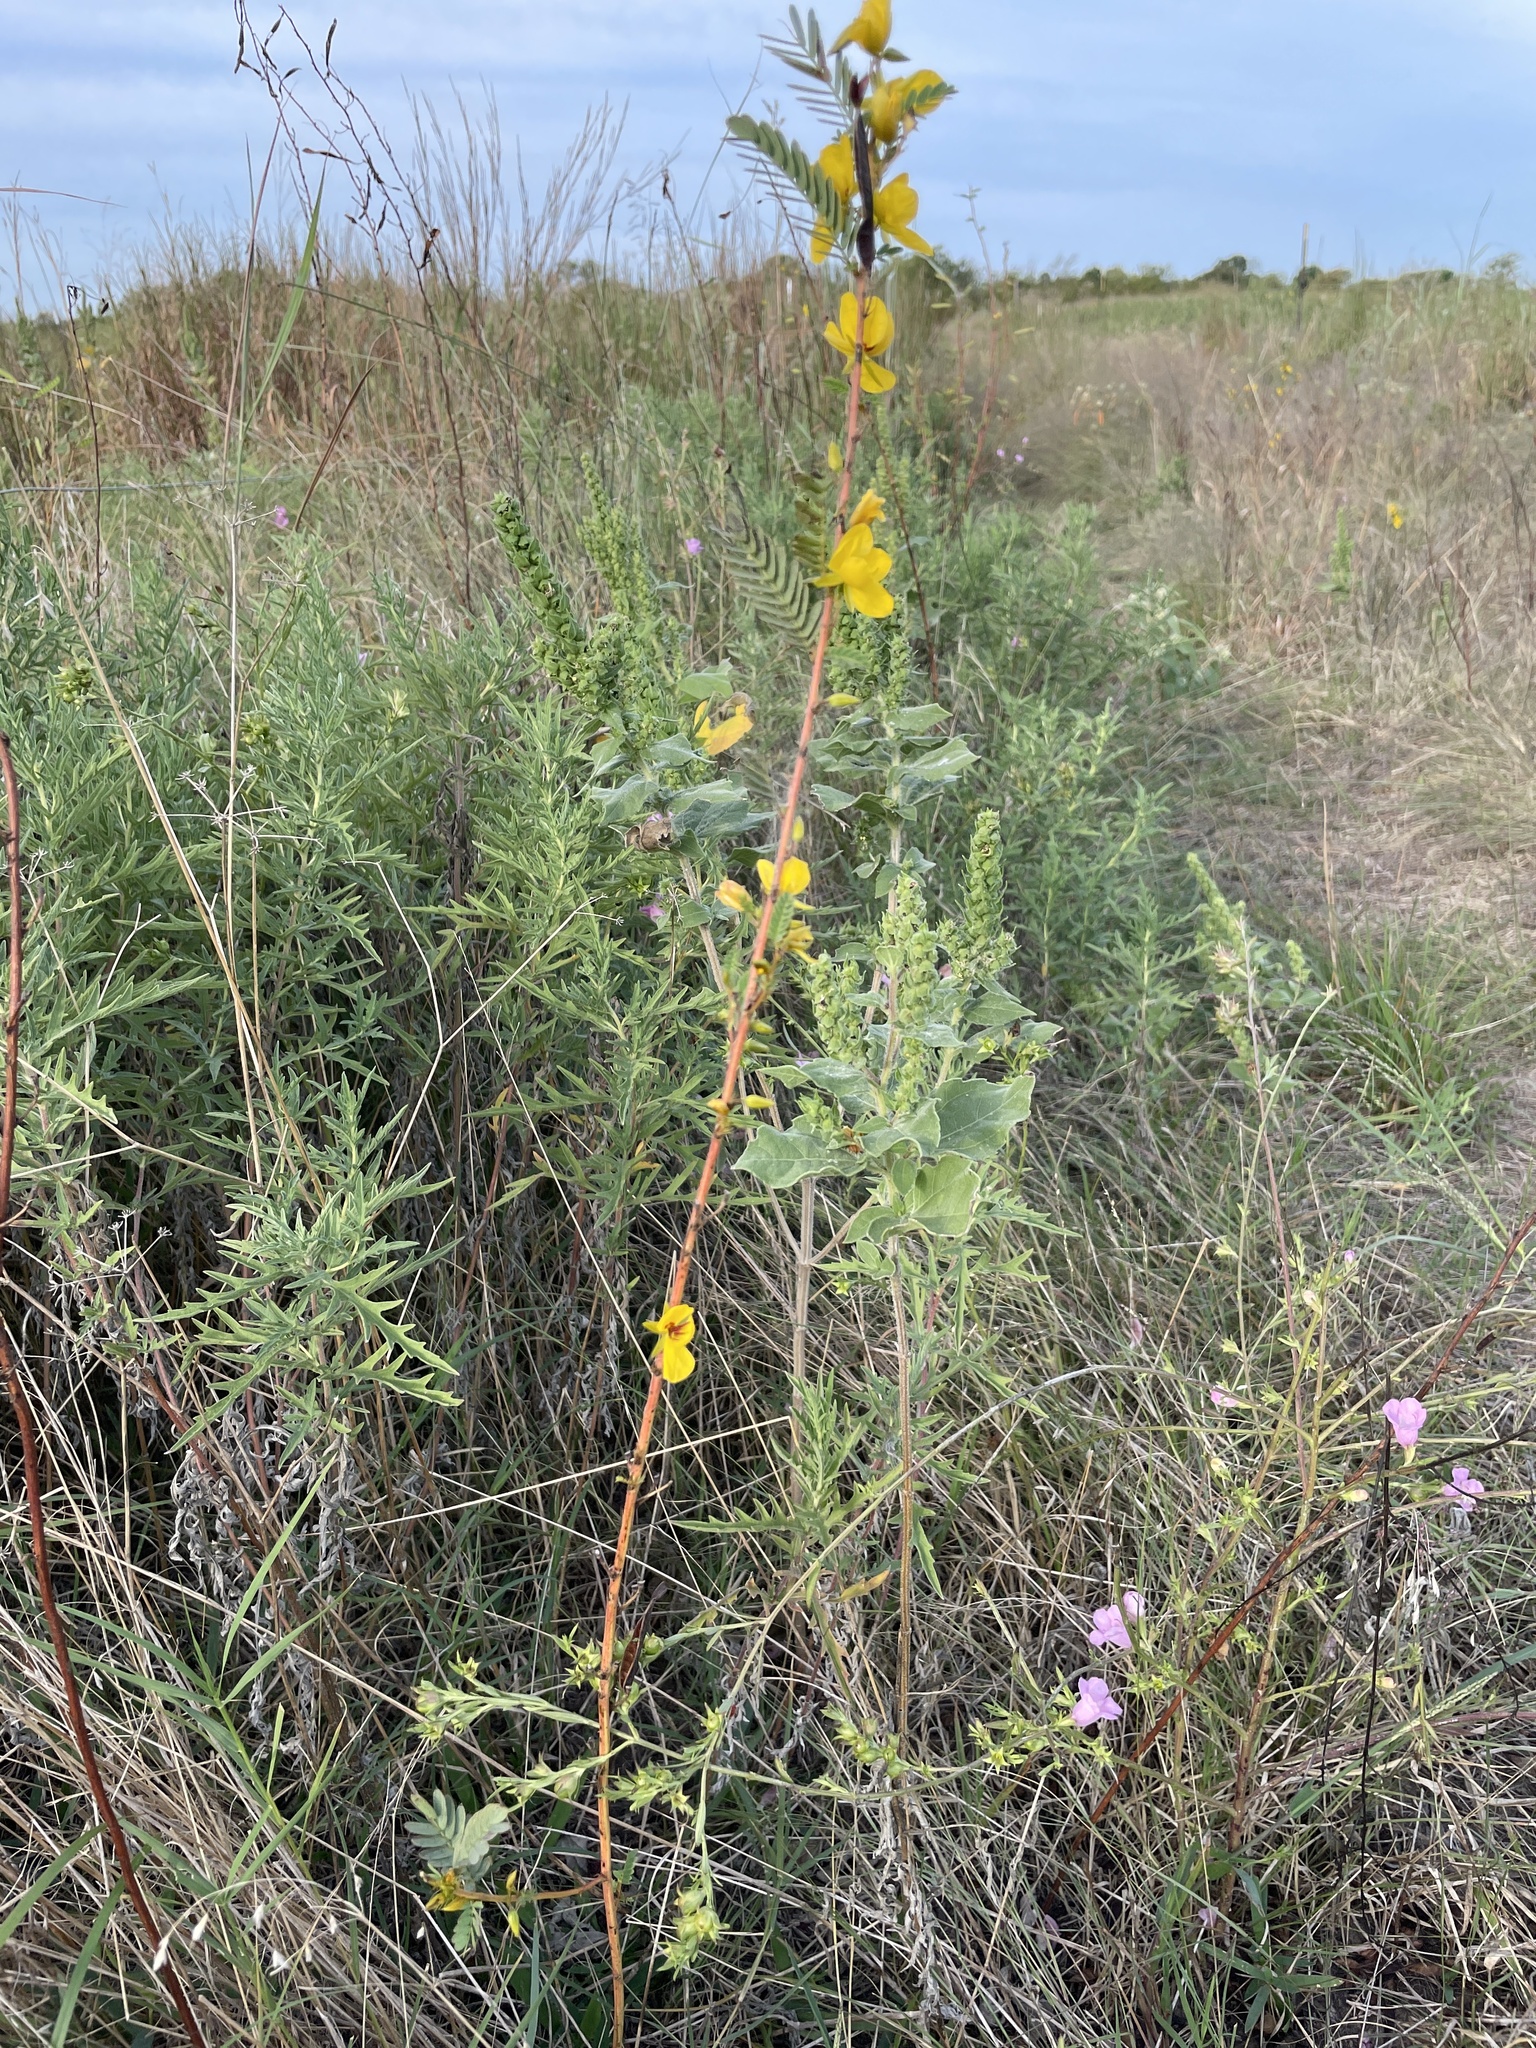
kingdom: Plantae
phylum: Tracheophyta
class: Magnoliopsida
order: Fabales
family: Fabaceae
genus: Chamaecrista
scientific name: Chamaecrista fasciculata
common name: Golden cassia
